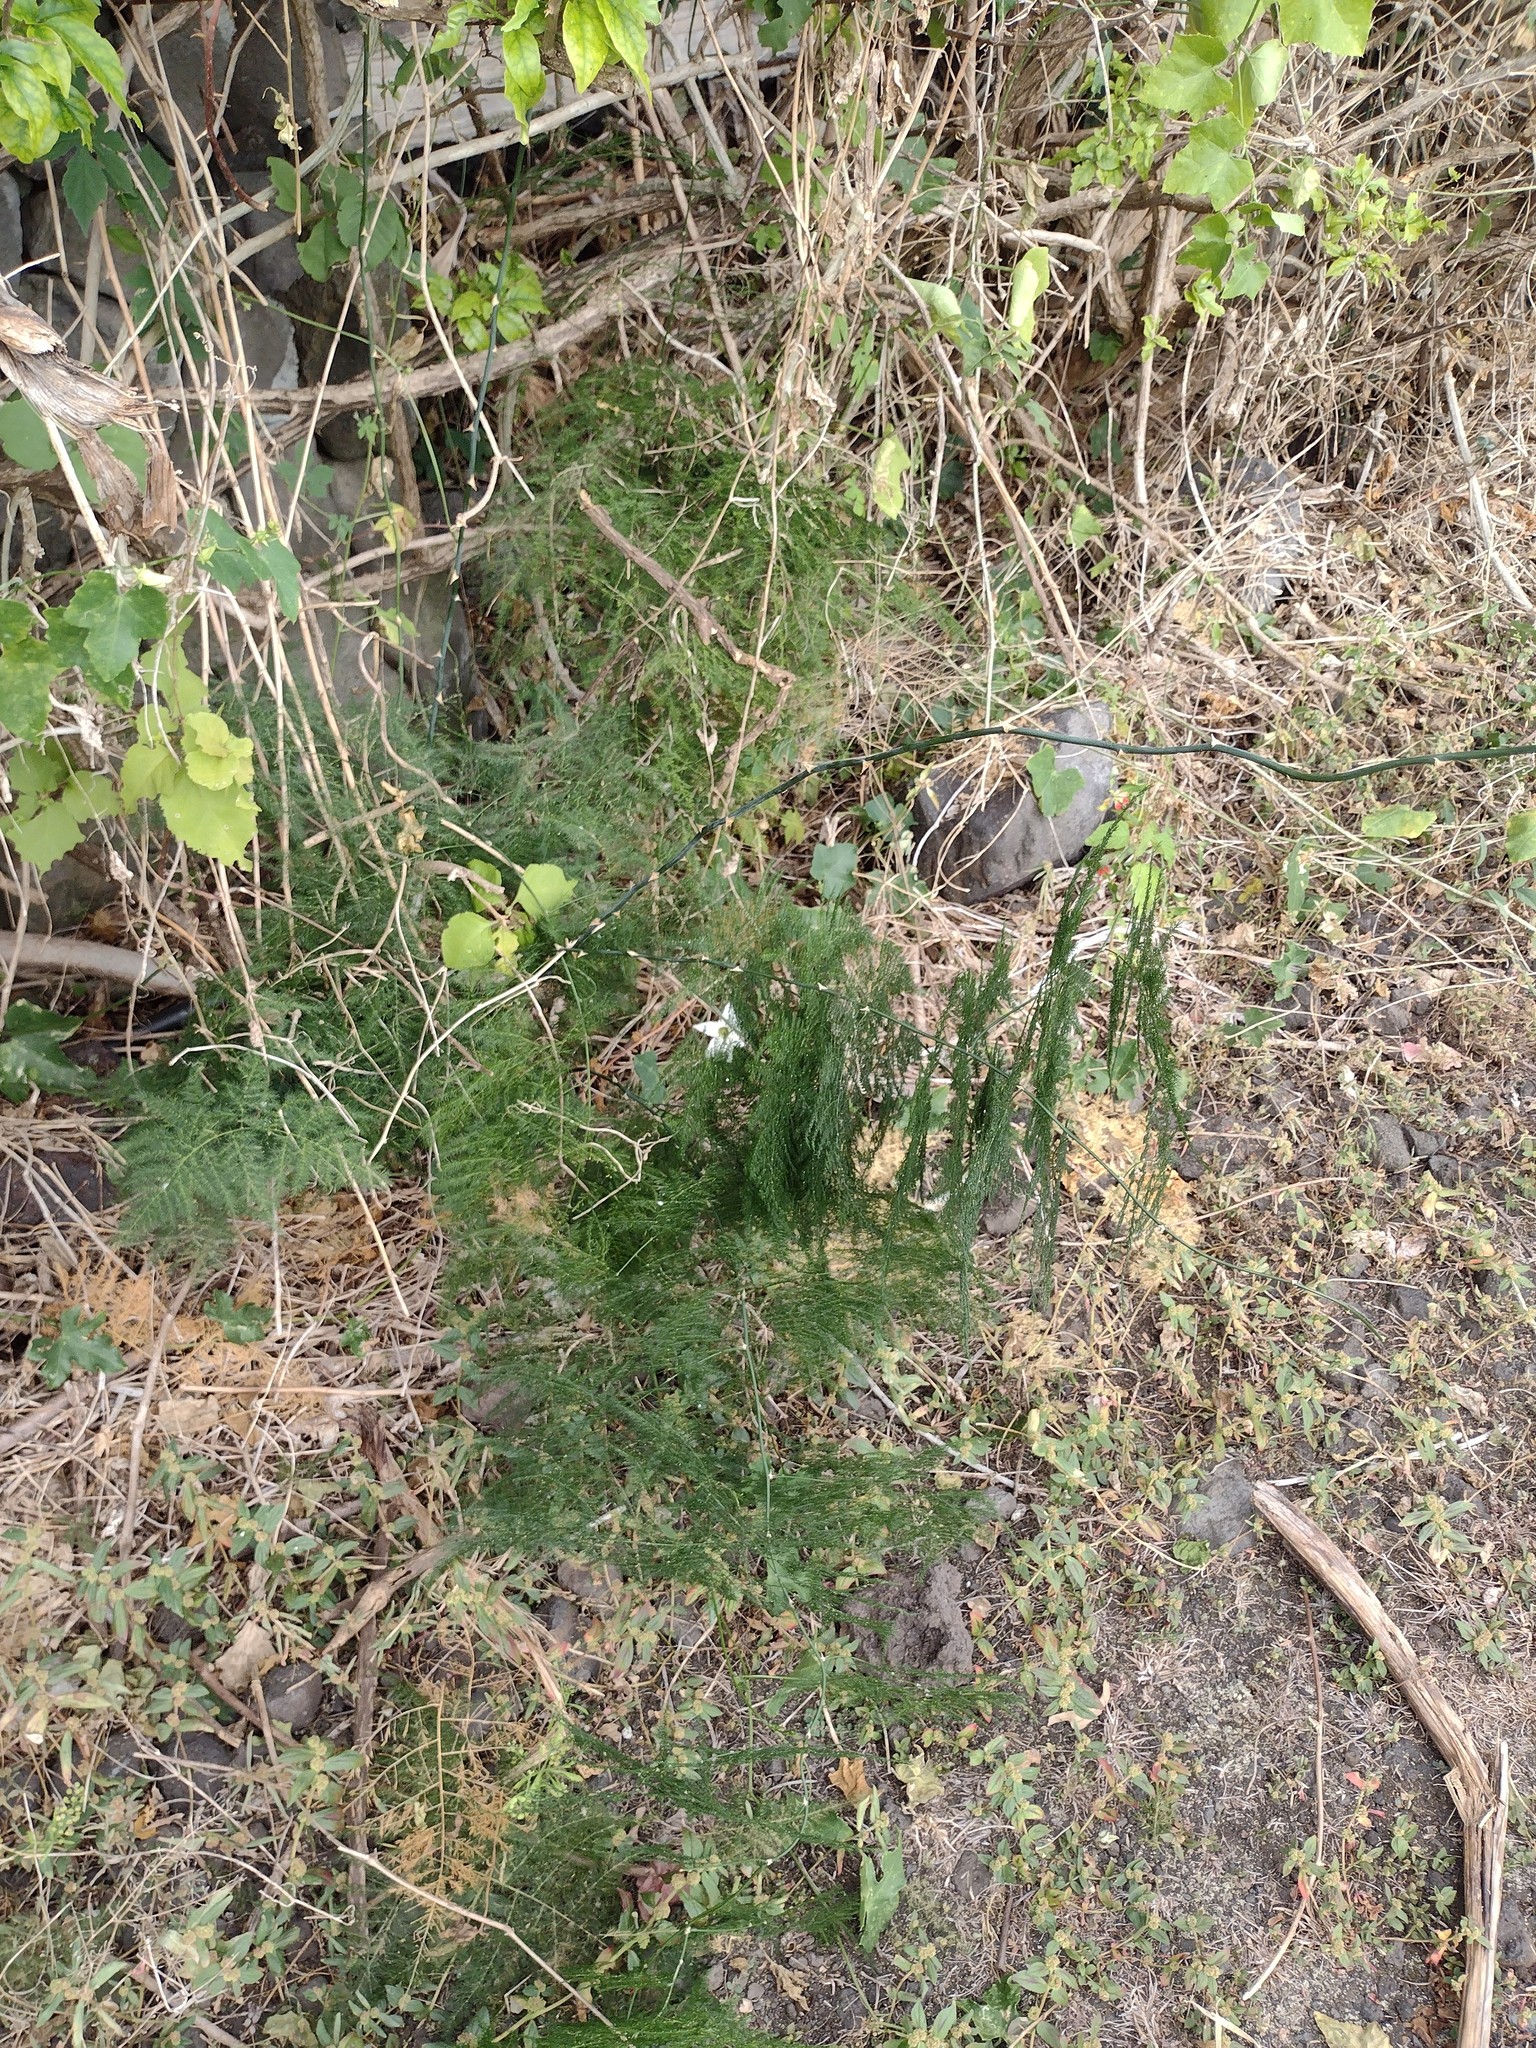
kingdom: Plantae
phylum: Tracheophyta
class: Liliopsida
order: Asparagales
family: Asparagaceae
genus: Asparagus
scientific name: Asparagus setaceus
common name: Common asparagus fern
